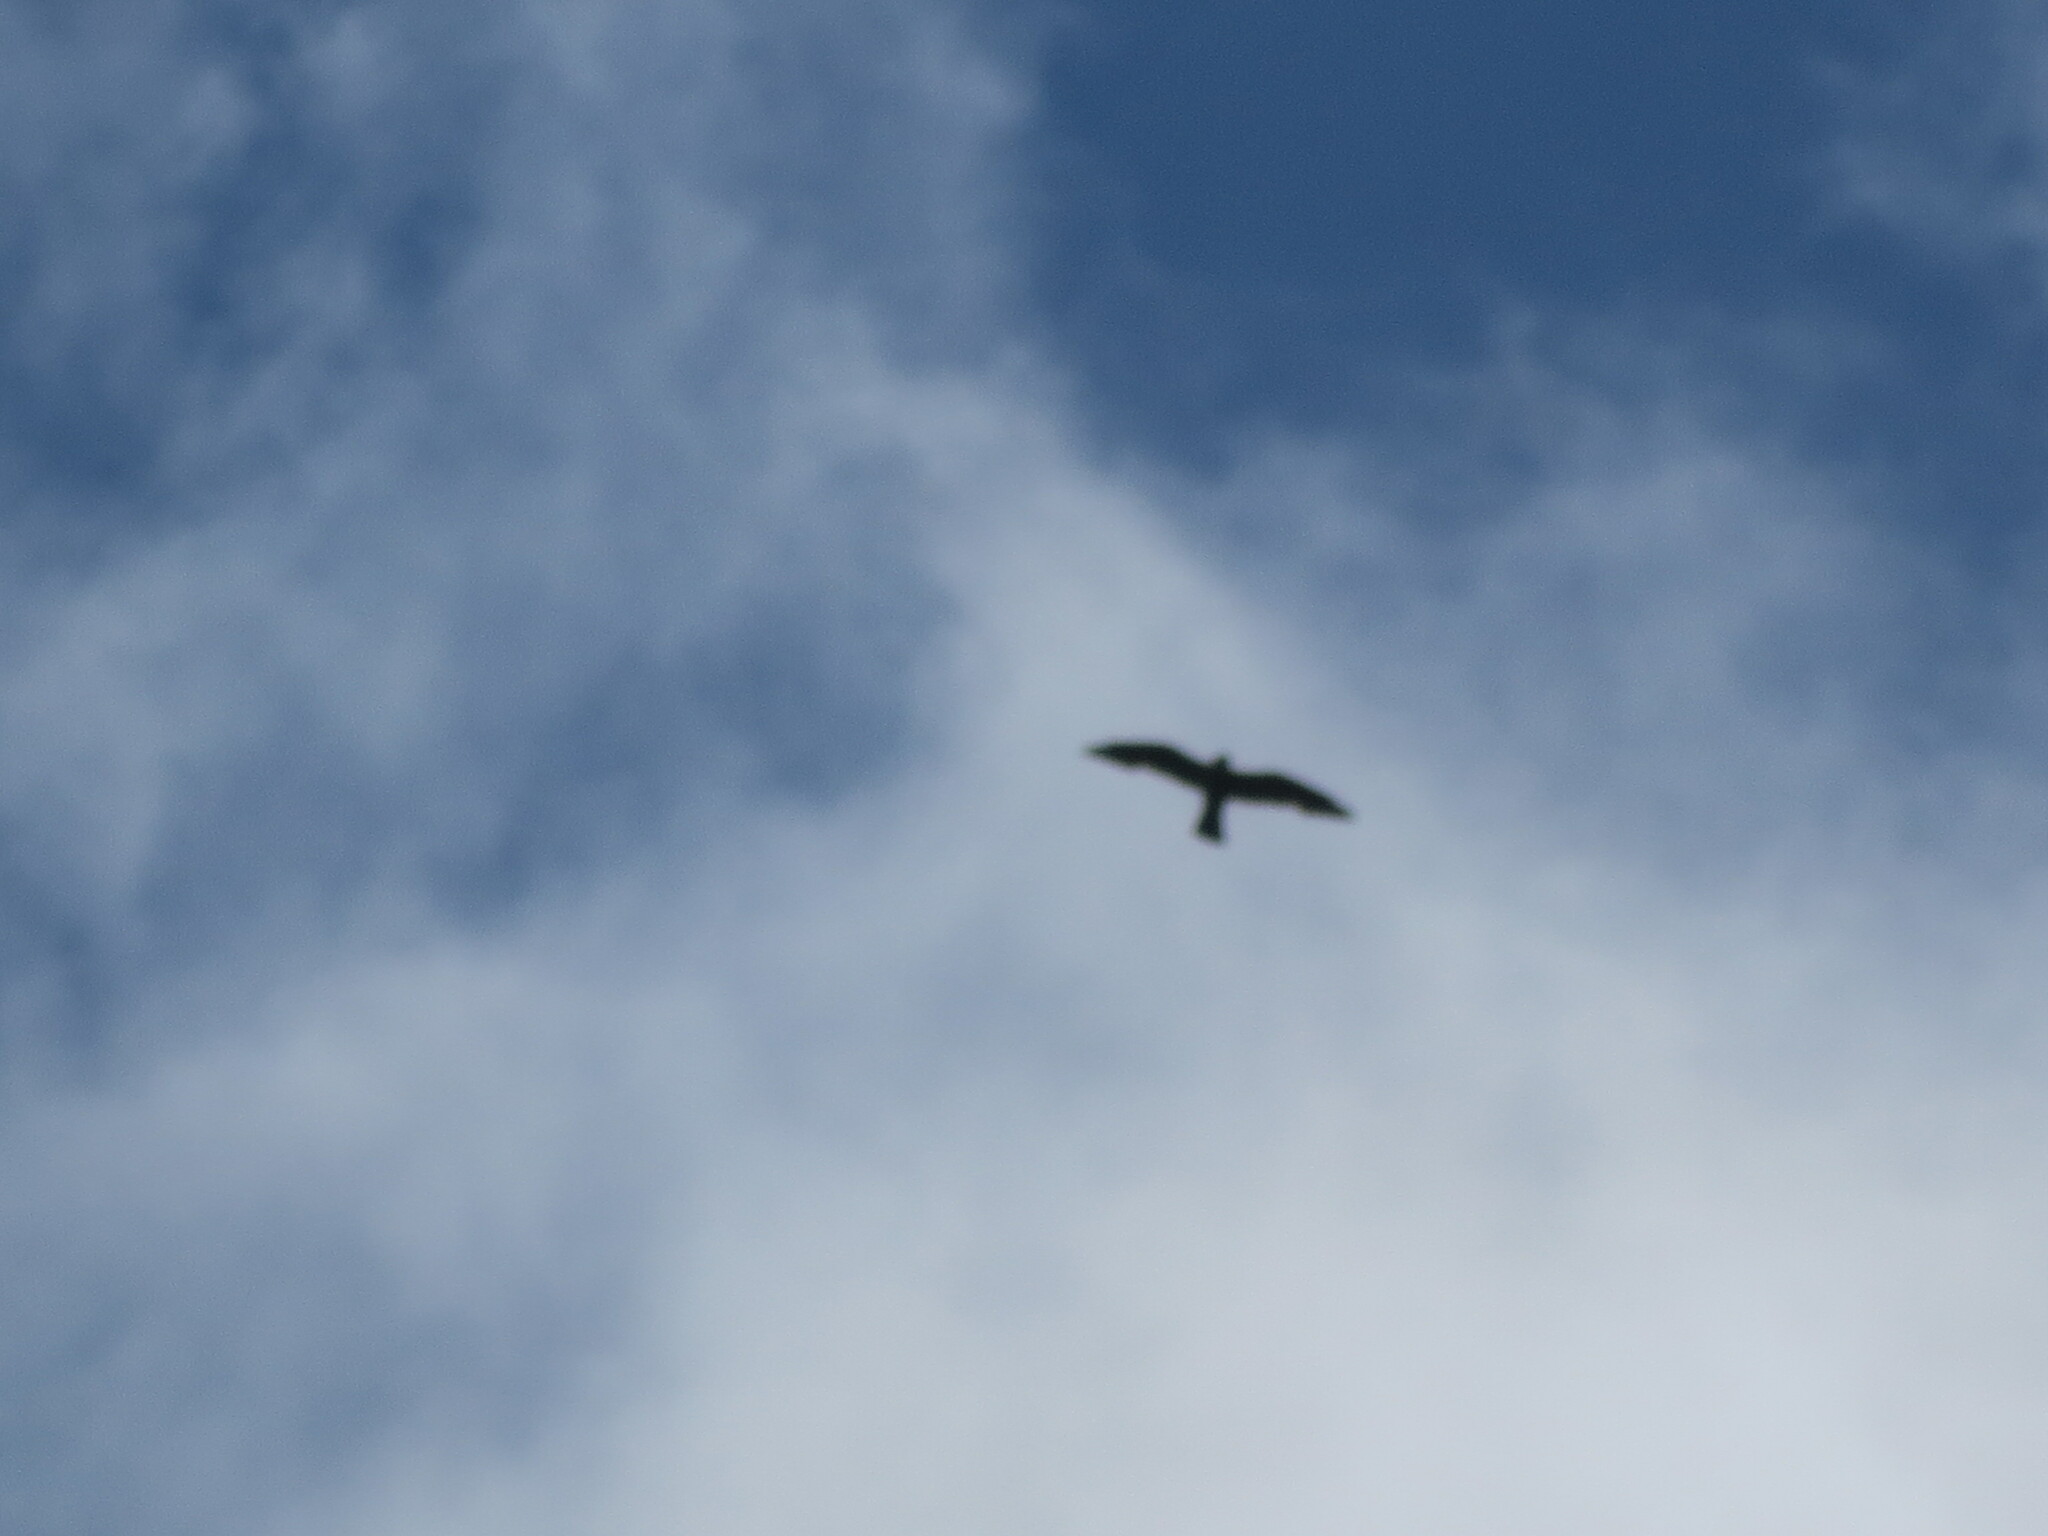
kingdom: Animalia
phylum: Chordata
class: Aves
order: Accipitriformes
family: Accipitridae
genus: Ictinia
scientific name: Ictinia mississippiensis
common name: Mississippi kite
